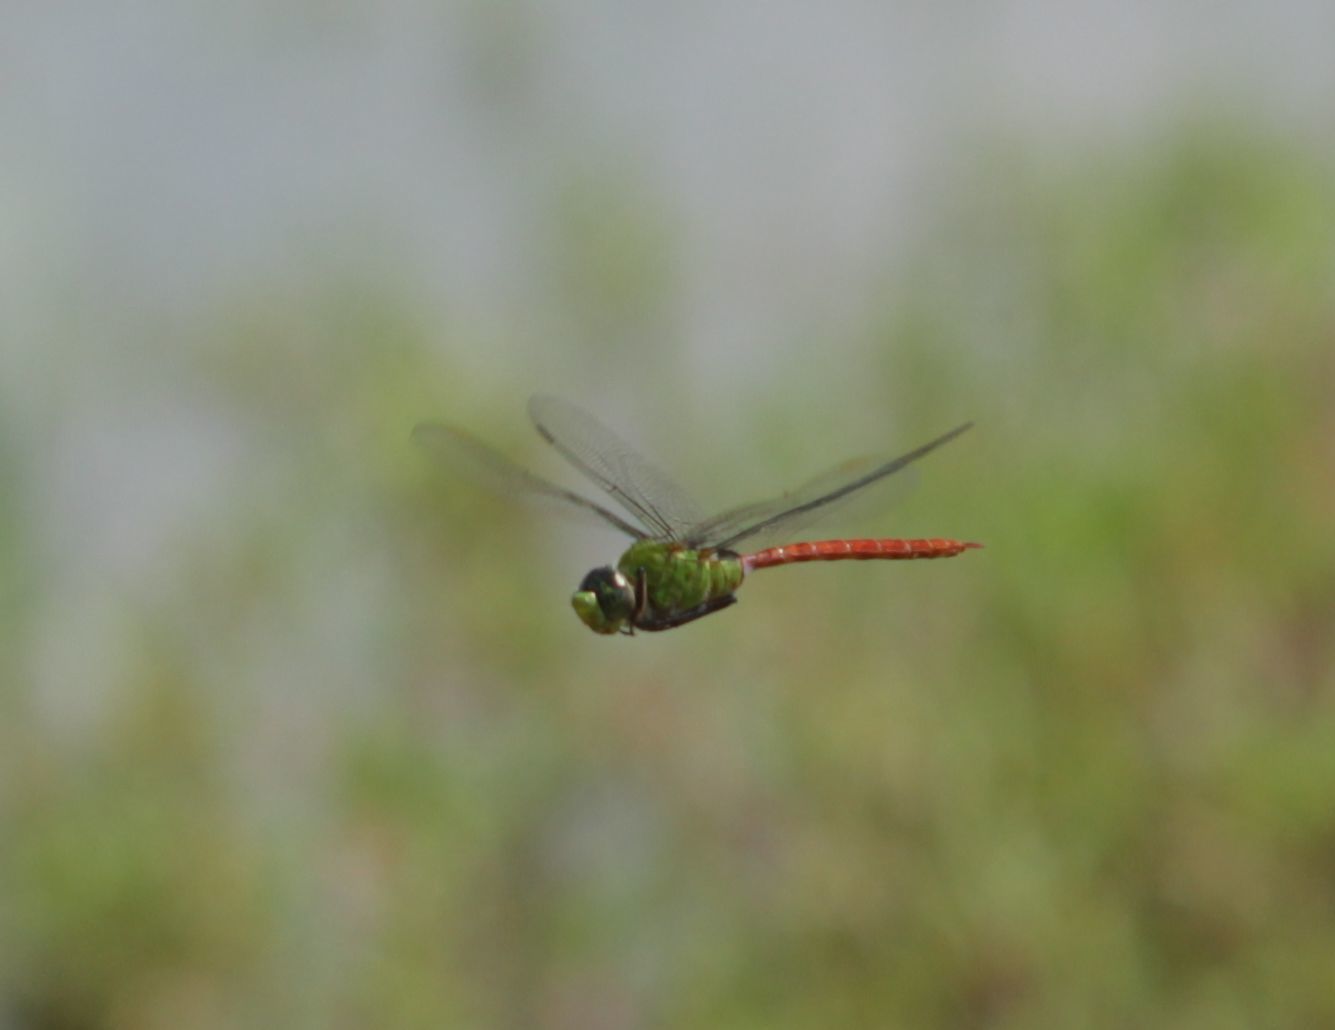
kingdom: Animalia
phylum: Arthropoda
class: Insecta
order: Odonata
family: Aeshnidae
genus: Anax
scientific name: Anax longipes
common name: Comet darner
